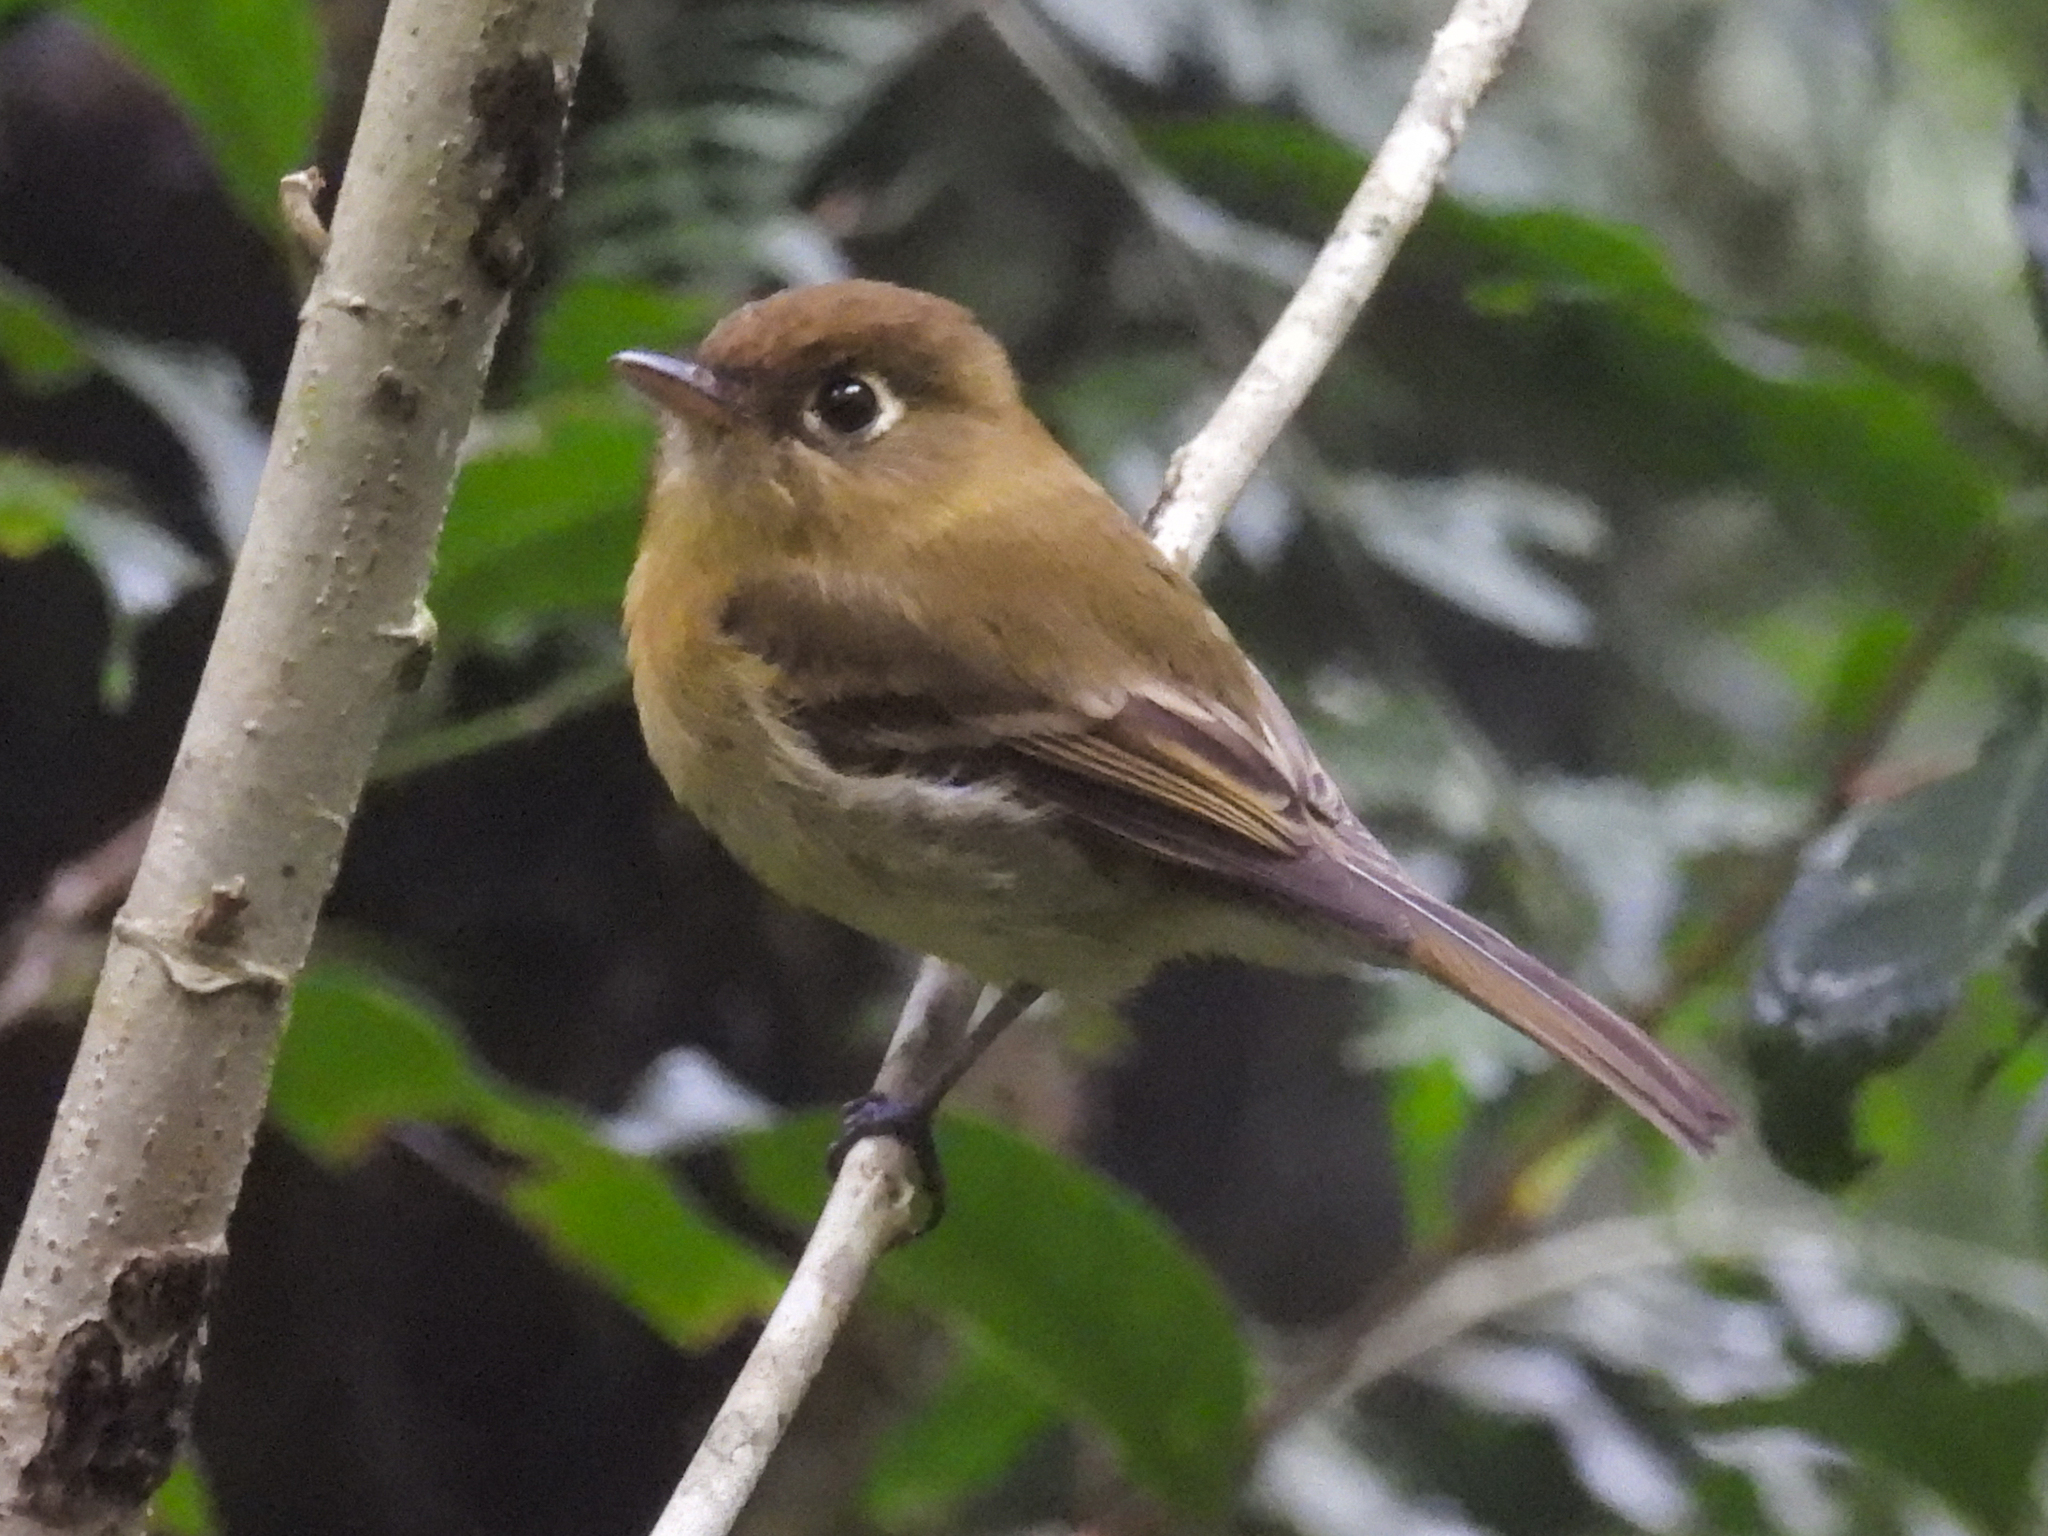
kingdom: Animalia
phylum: Chordata
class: Aves
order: Passeriformes
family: Tyrannidae
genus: Empidonax
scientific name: Empidonax flavescens
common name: Yellowish flycatcher
